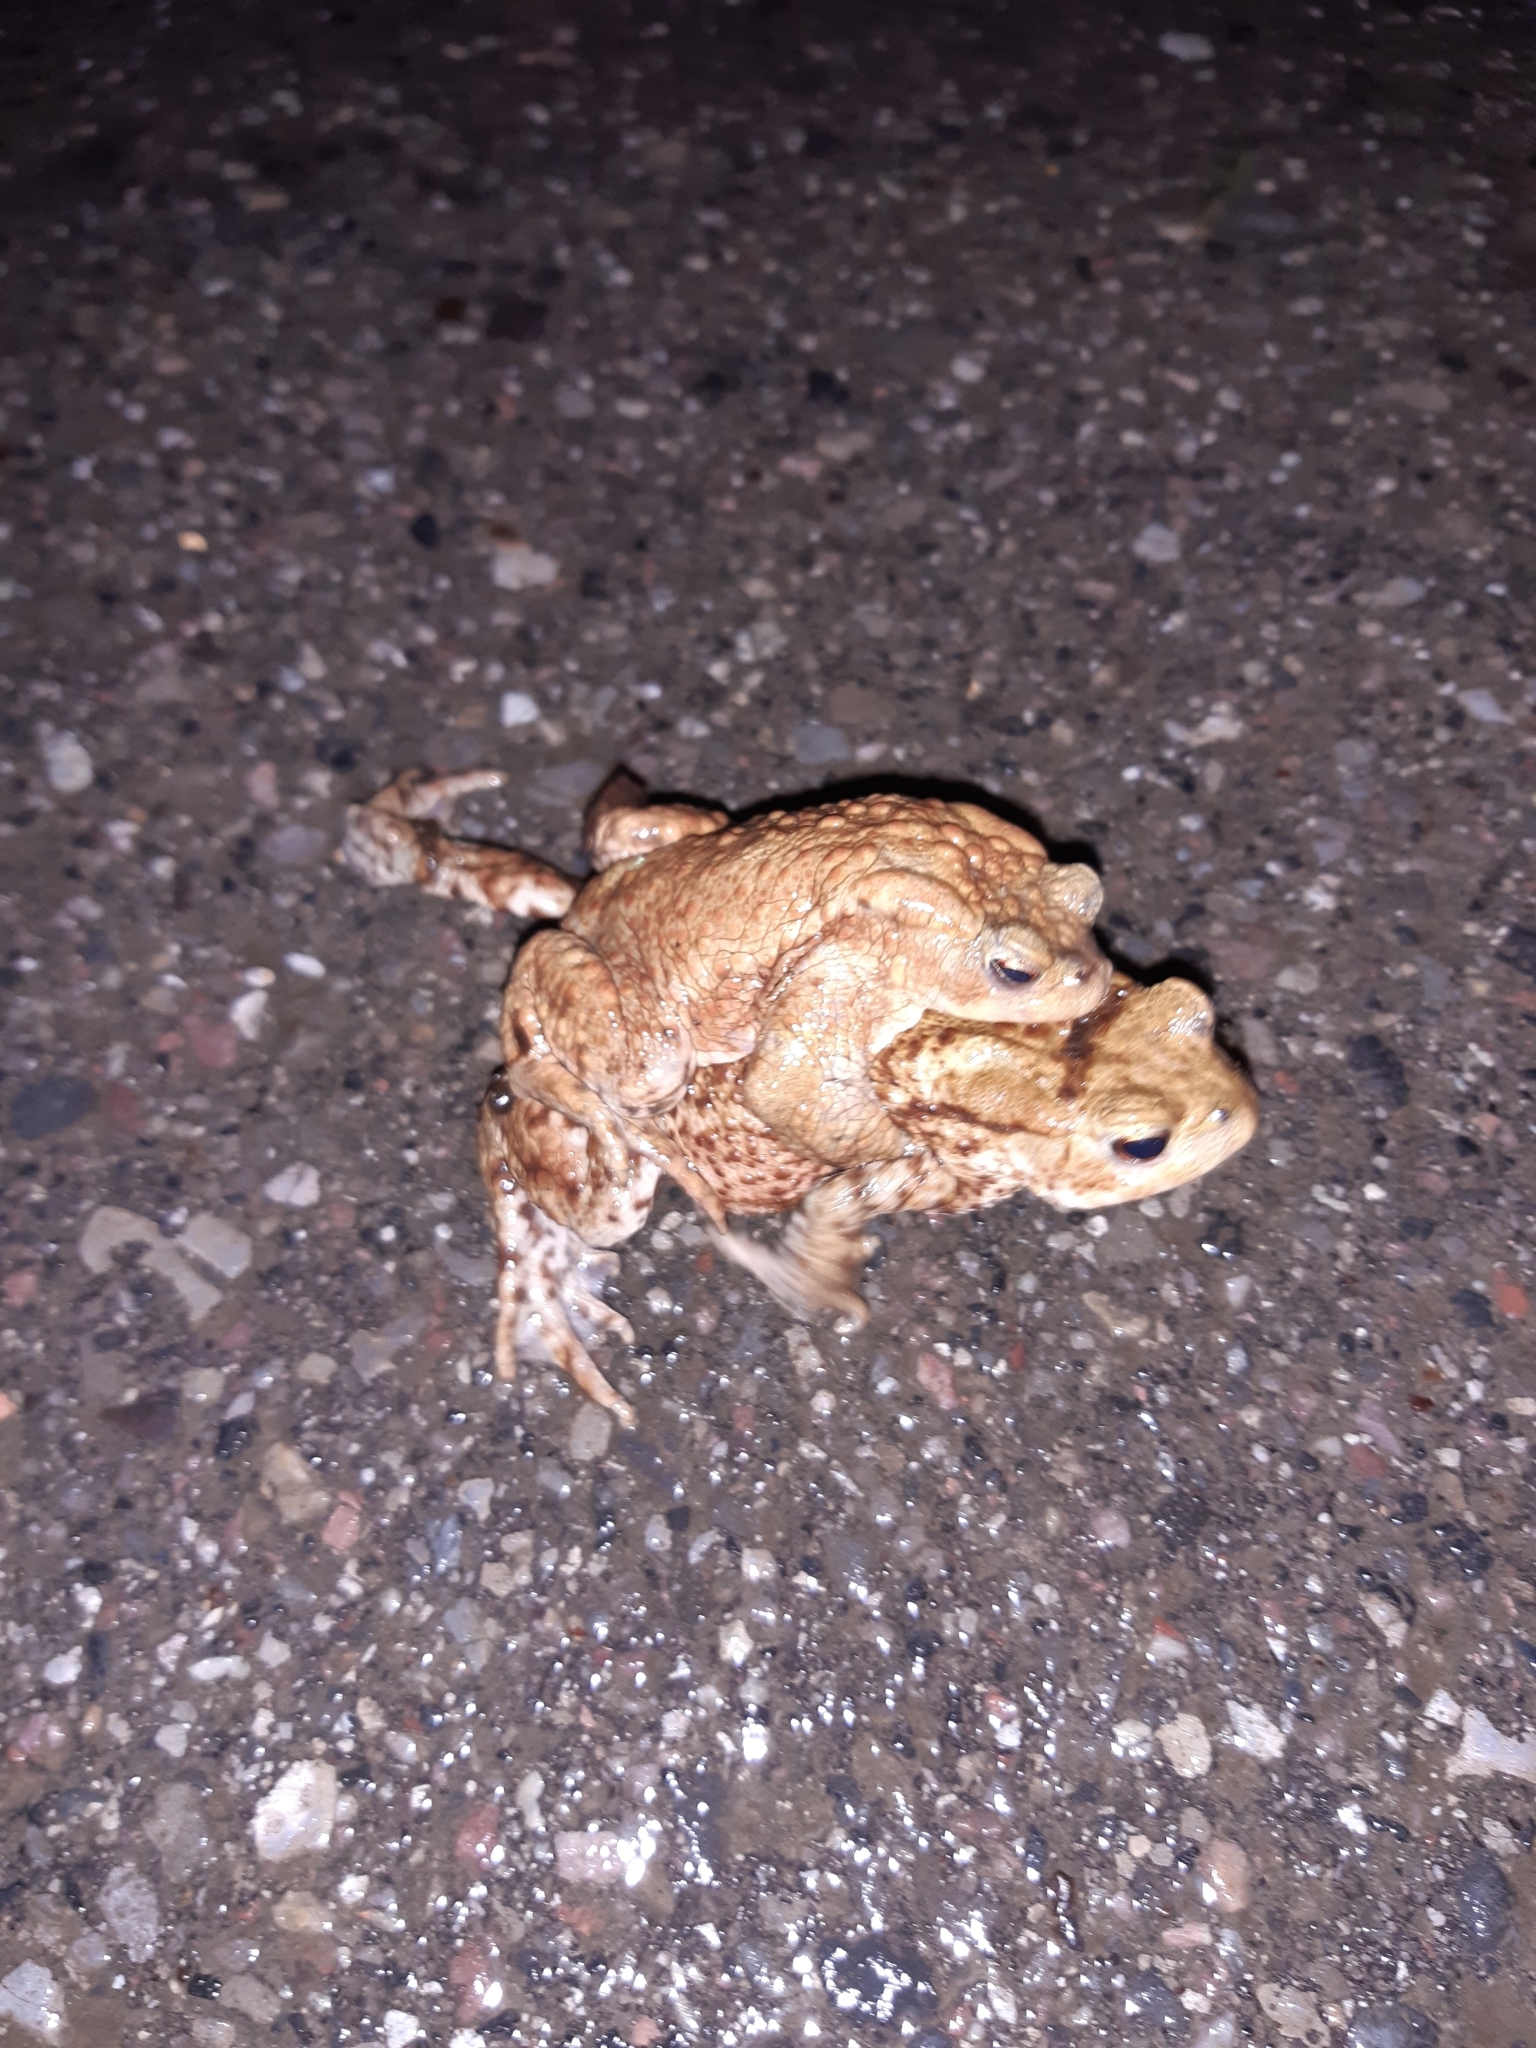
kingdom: Animalia
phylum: Chordata
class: Amphibia
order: Anura
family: Bufonidae
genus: Bufo
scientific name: Bufo bufo
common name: Common toad
